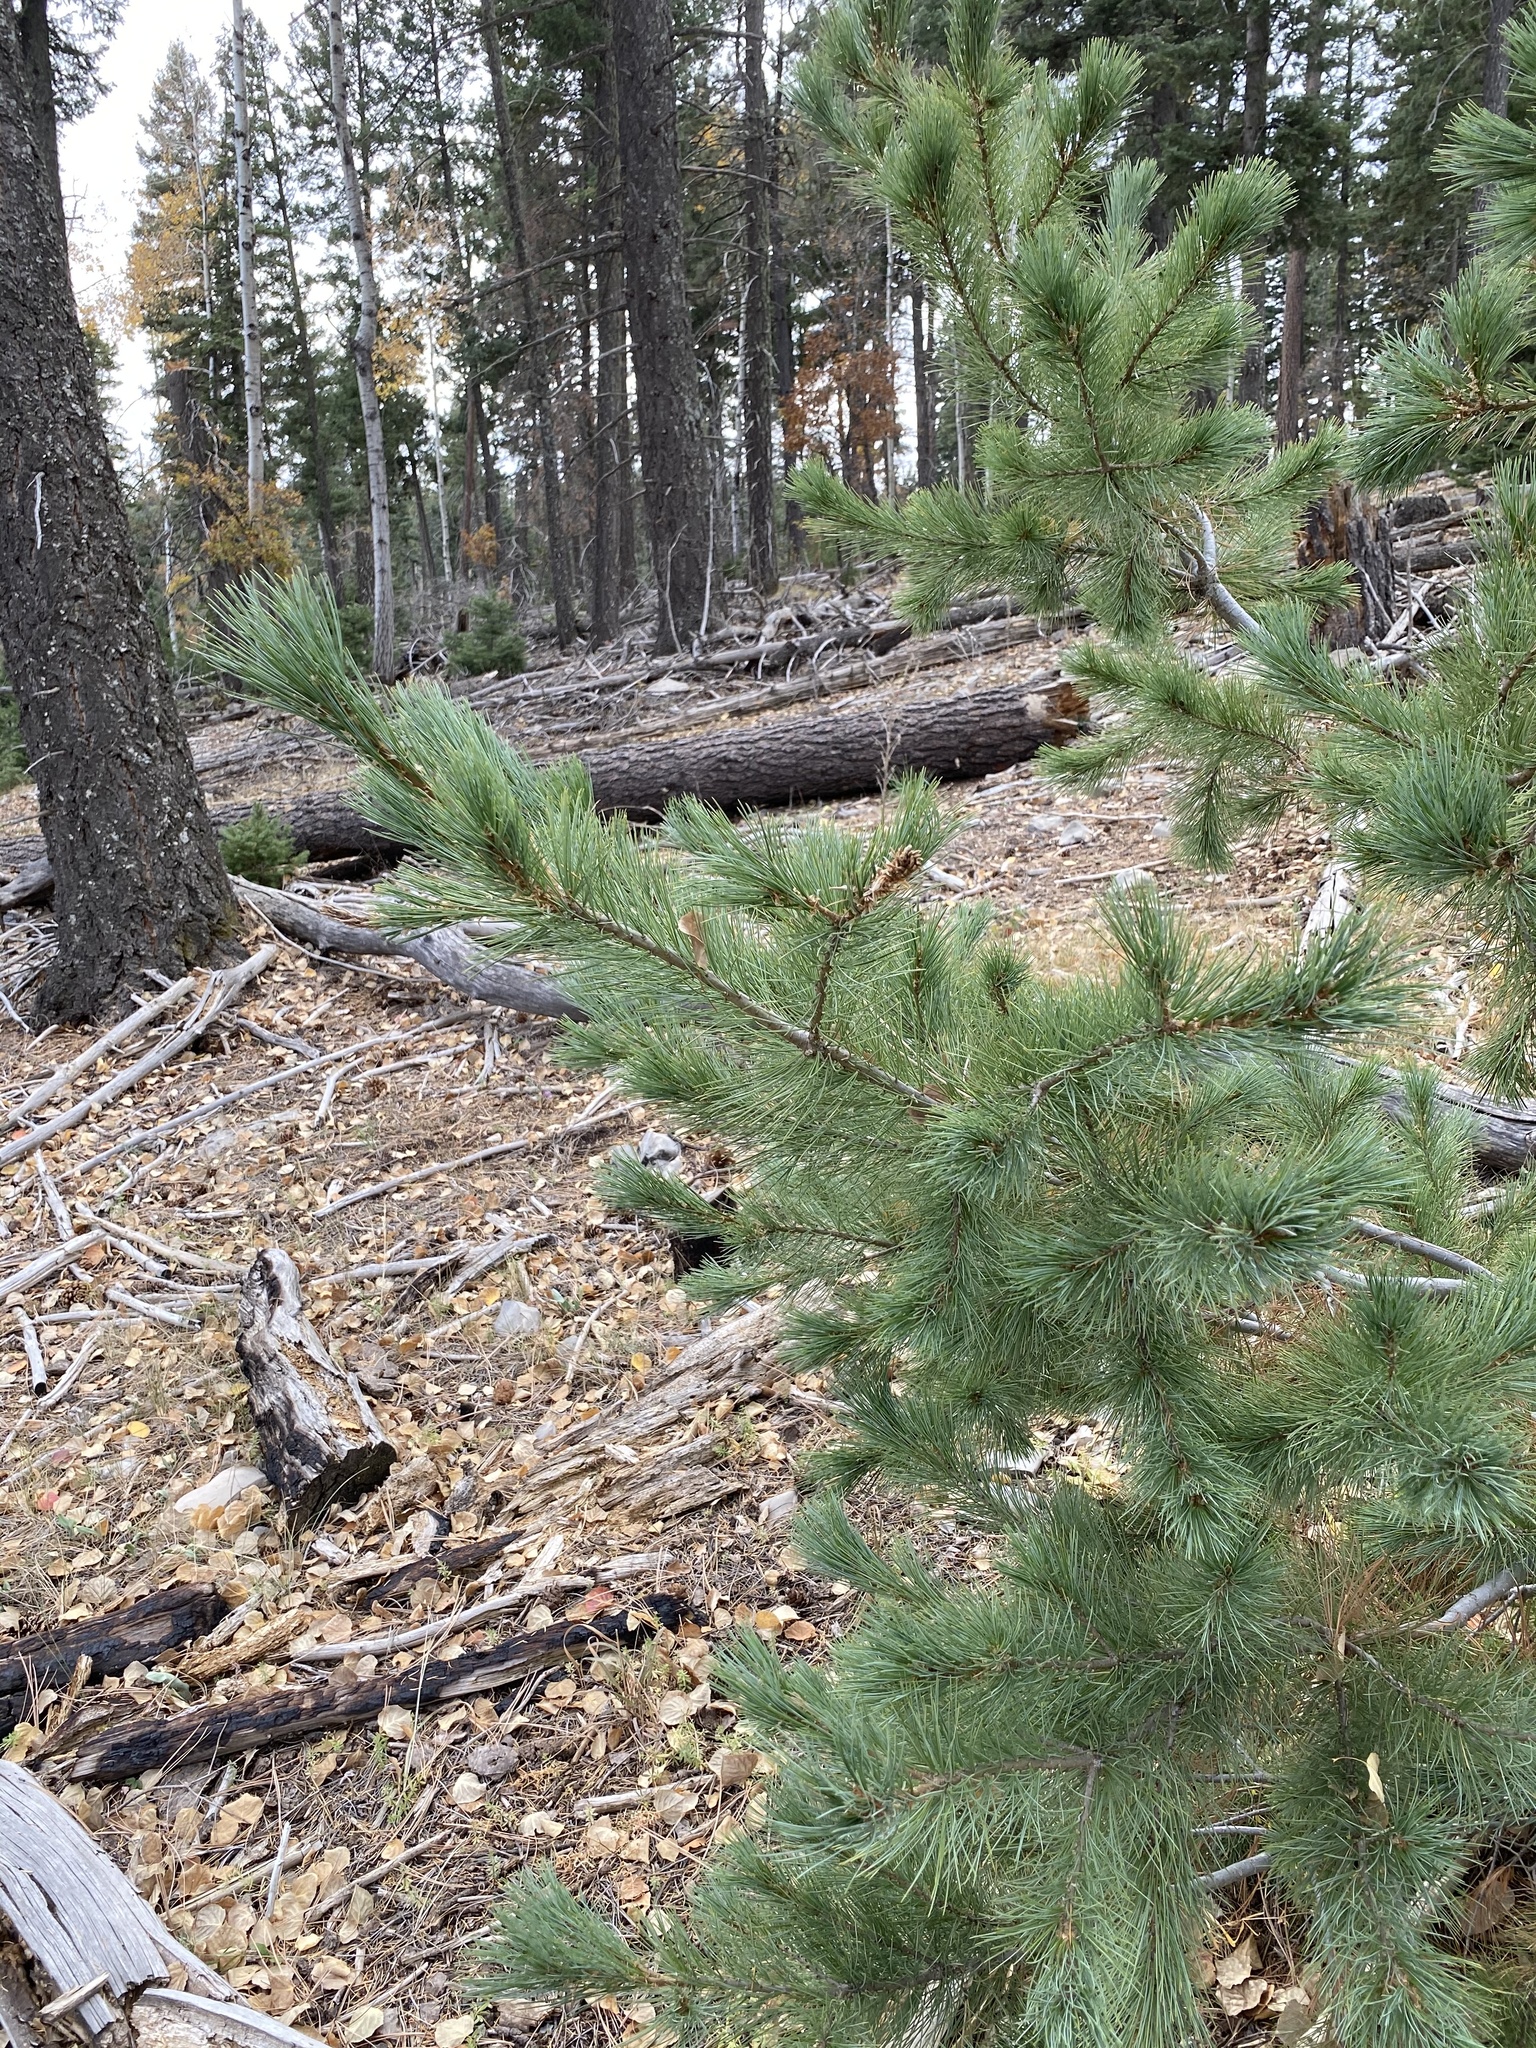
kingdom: Plantae
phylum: Tracheophyta
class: Pinopsida
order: Pinales
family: Pinaceae
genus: Pinus
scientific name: Pinus strobiformis
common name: Southwestern white pine
